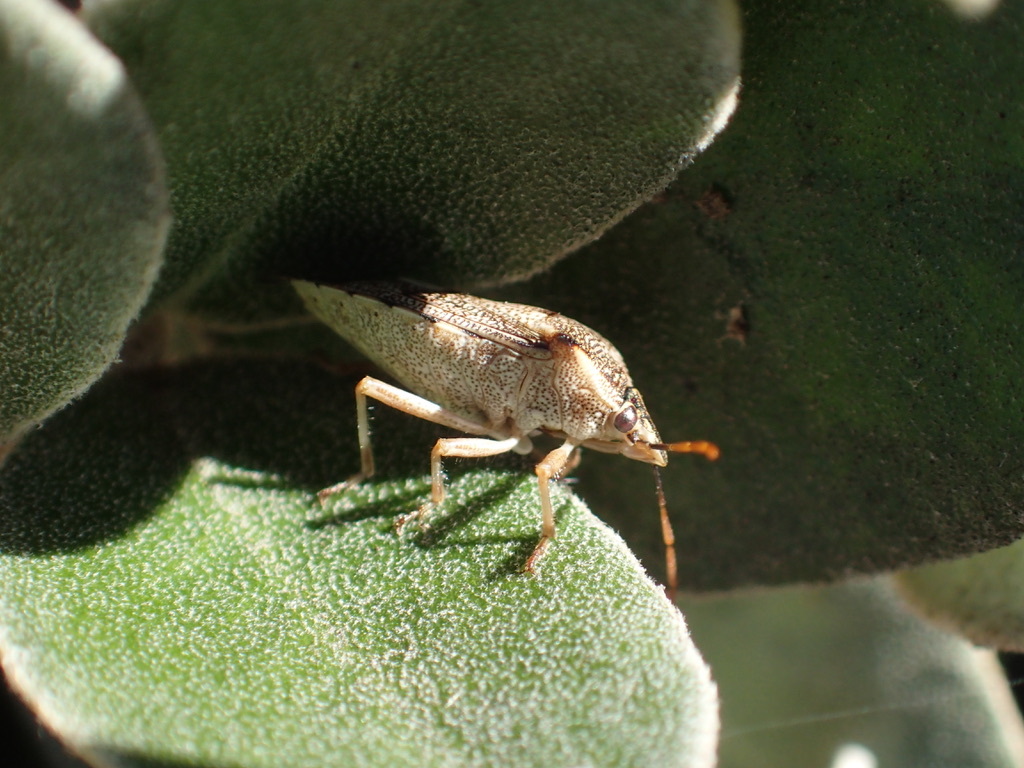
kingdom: Animalia
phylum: Arthropoda
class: Insecta
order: Hemiptera
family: Pentatomidae
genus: Oechalia
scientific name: Oechalia schellenbergii
